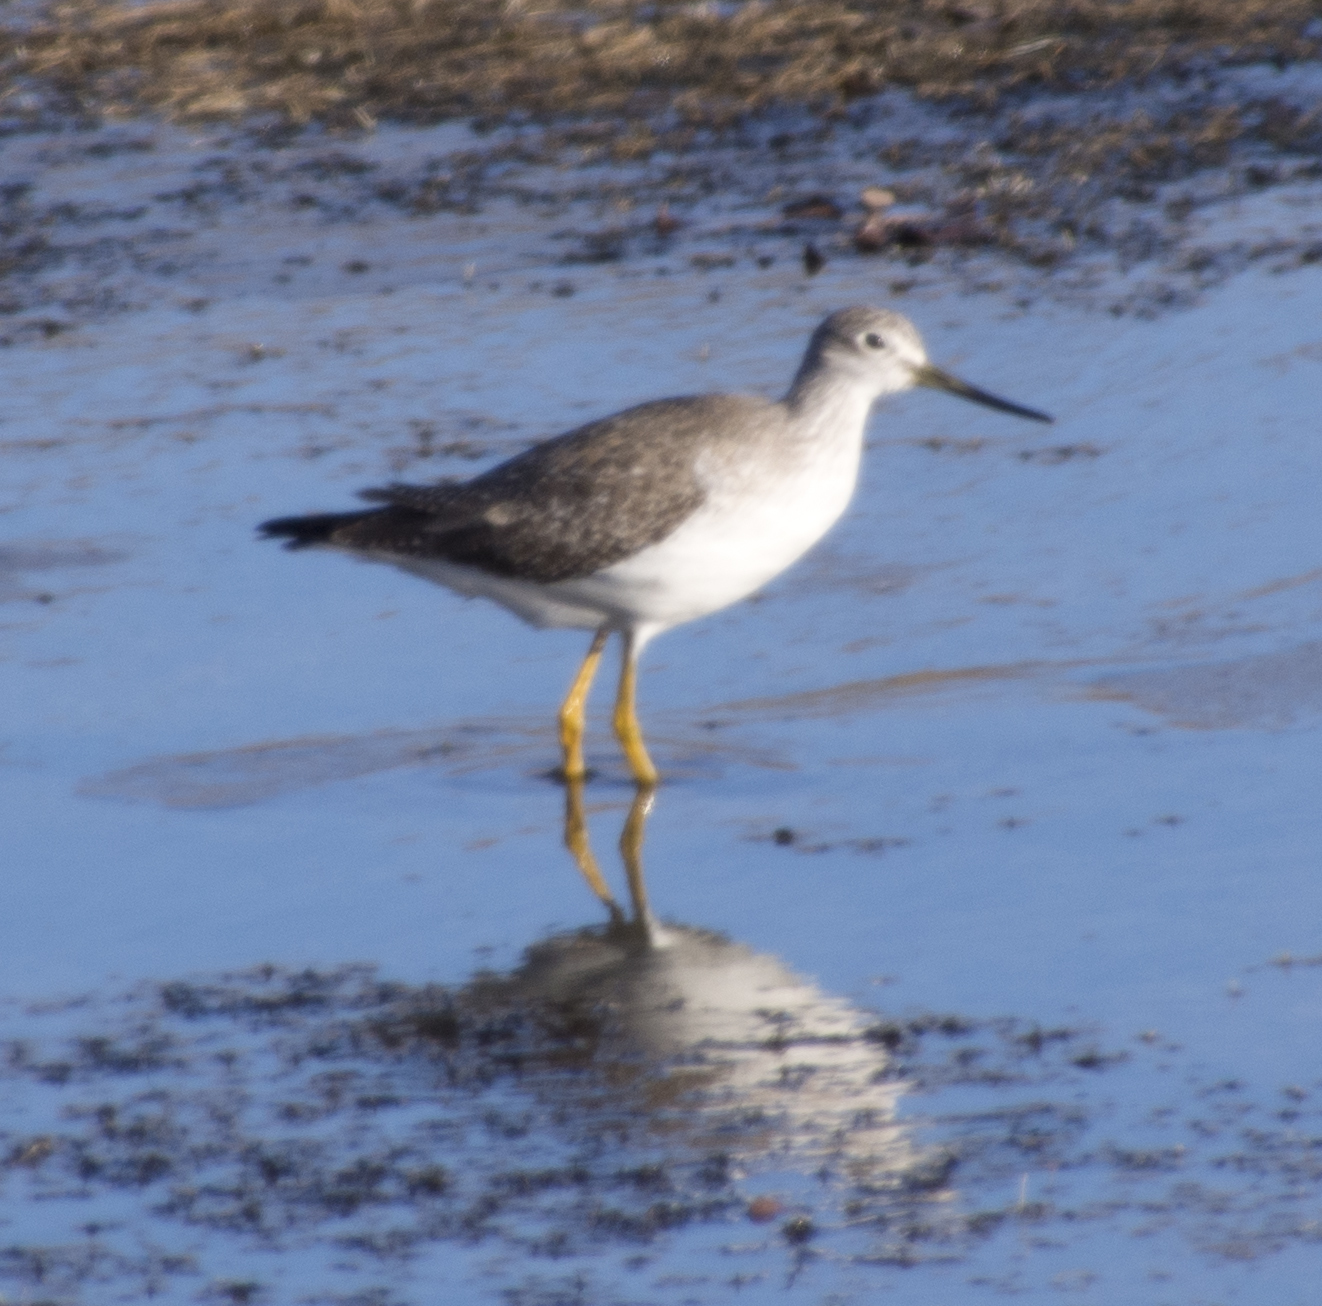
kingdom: Animalia
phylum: Chordata
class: Aves
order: Charadriiformes
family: Scolopacidae
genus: Tringa
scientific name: Tringa melanoleuca
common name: Greater yellowlegs
